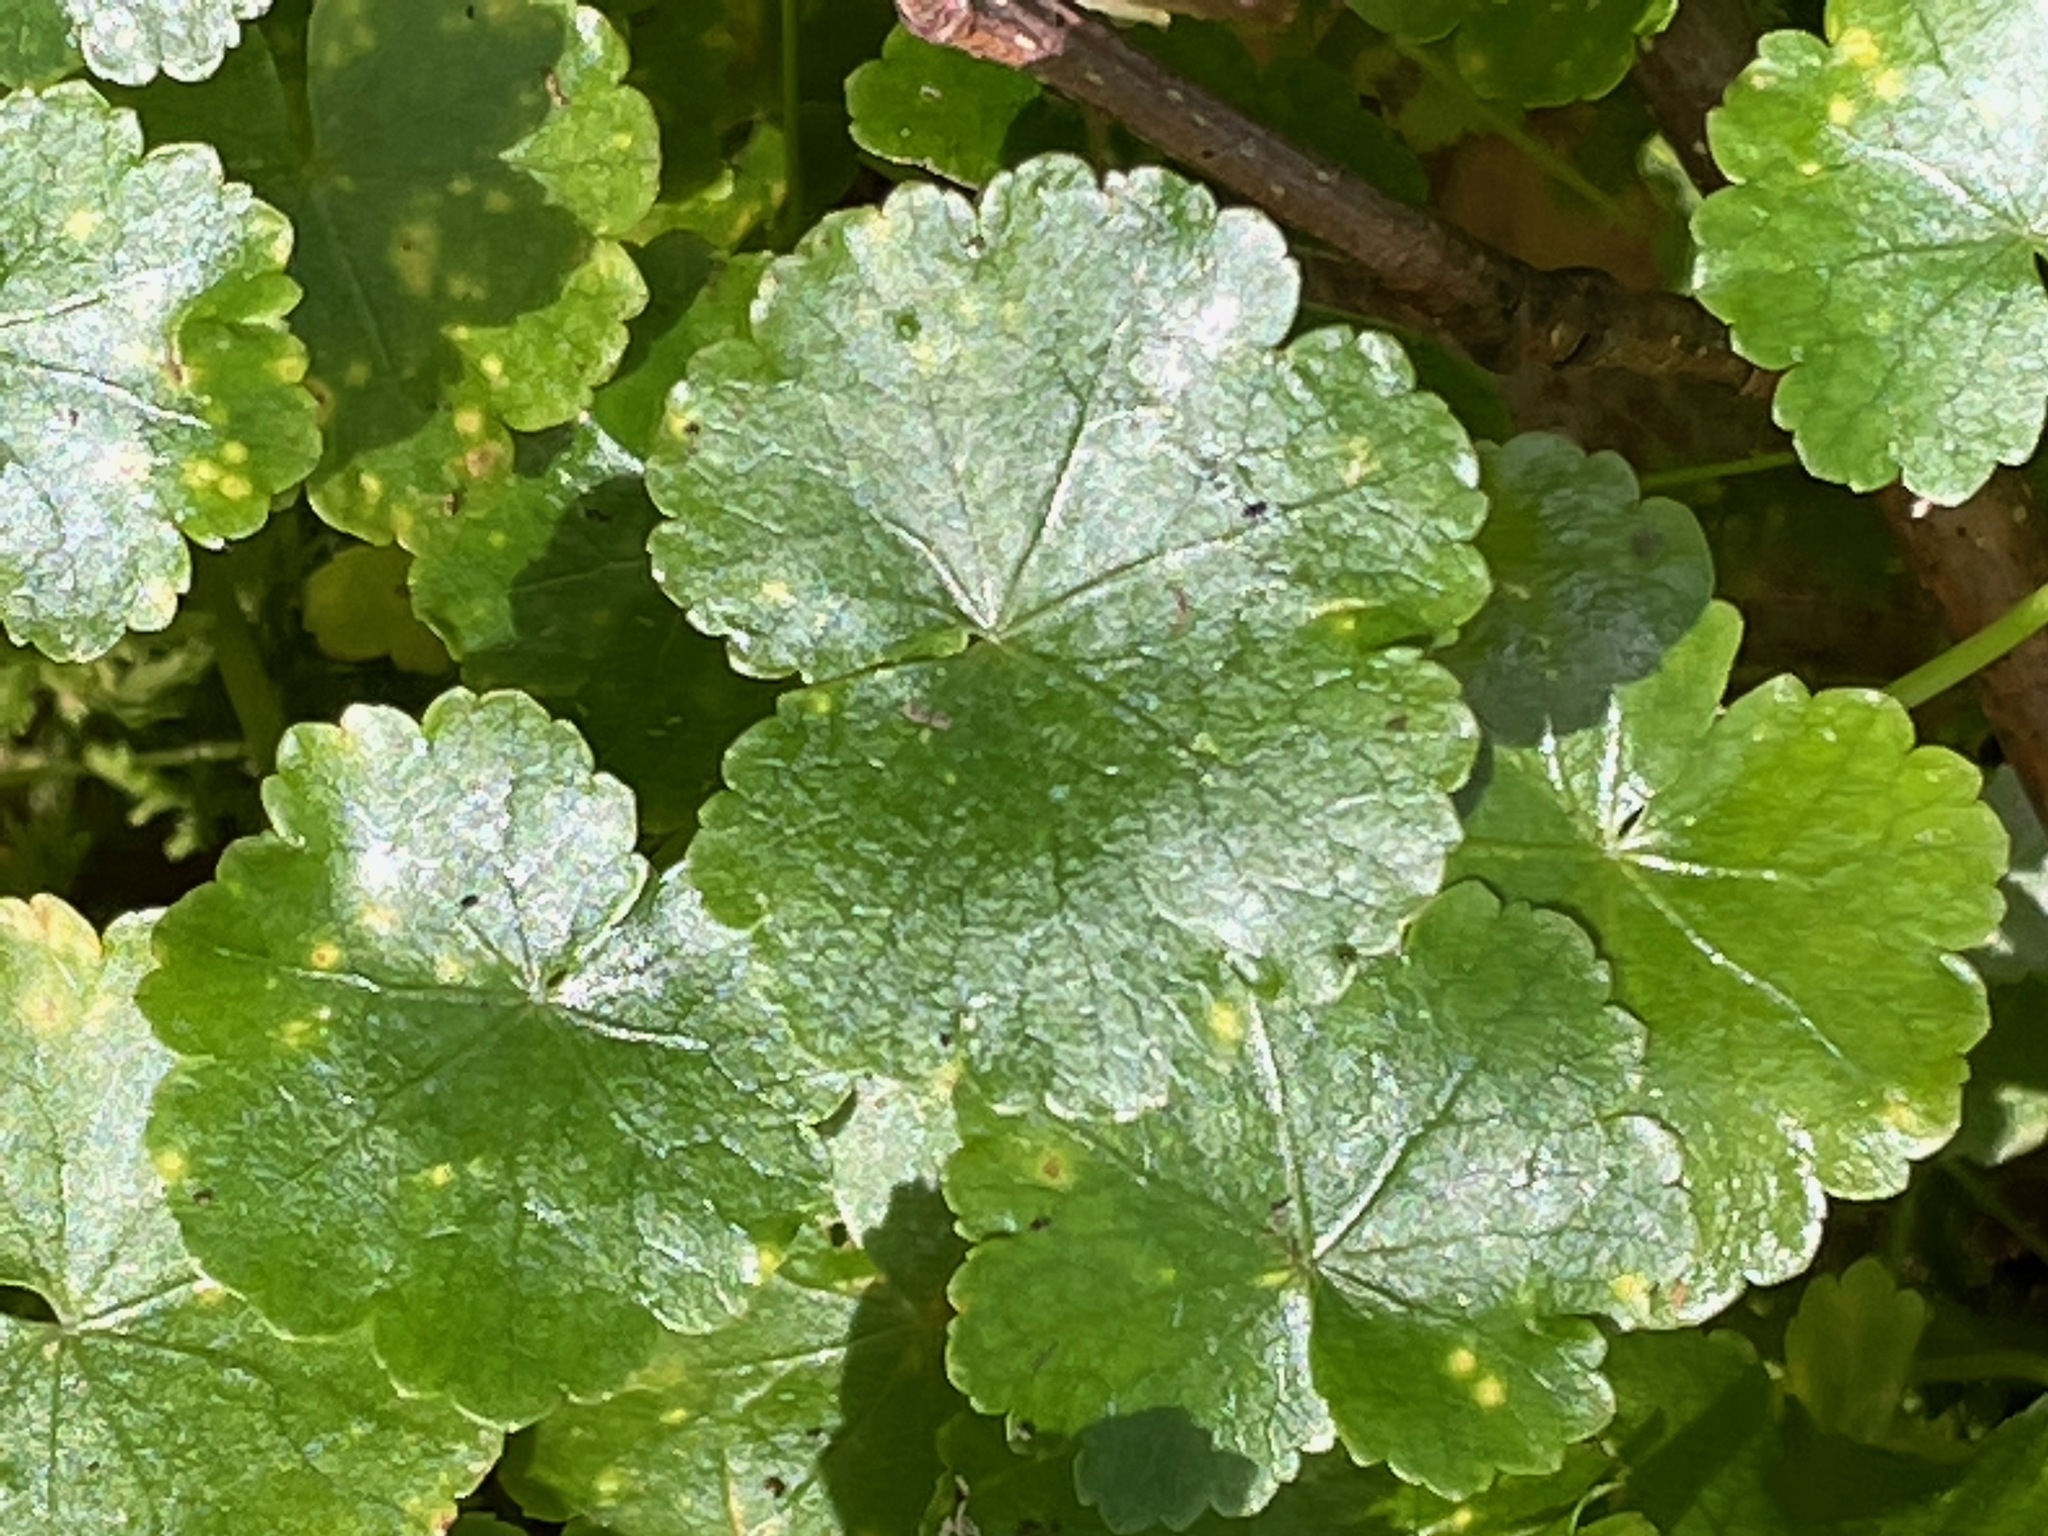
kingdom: Plantae
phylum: Tracheophyta
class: Magnoliopsida
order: Apiales
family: Araliaceae
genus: Hydrocotyle
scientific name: Hydrocotyle americana
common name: American water-pennywort
